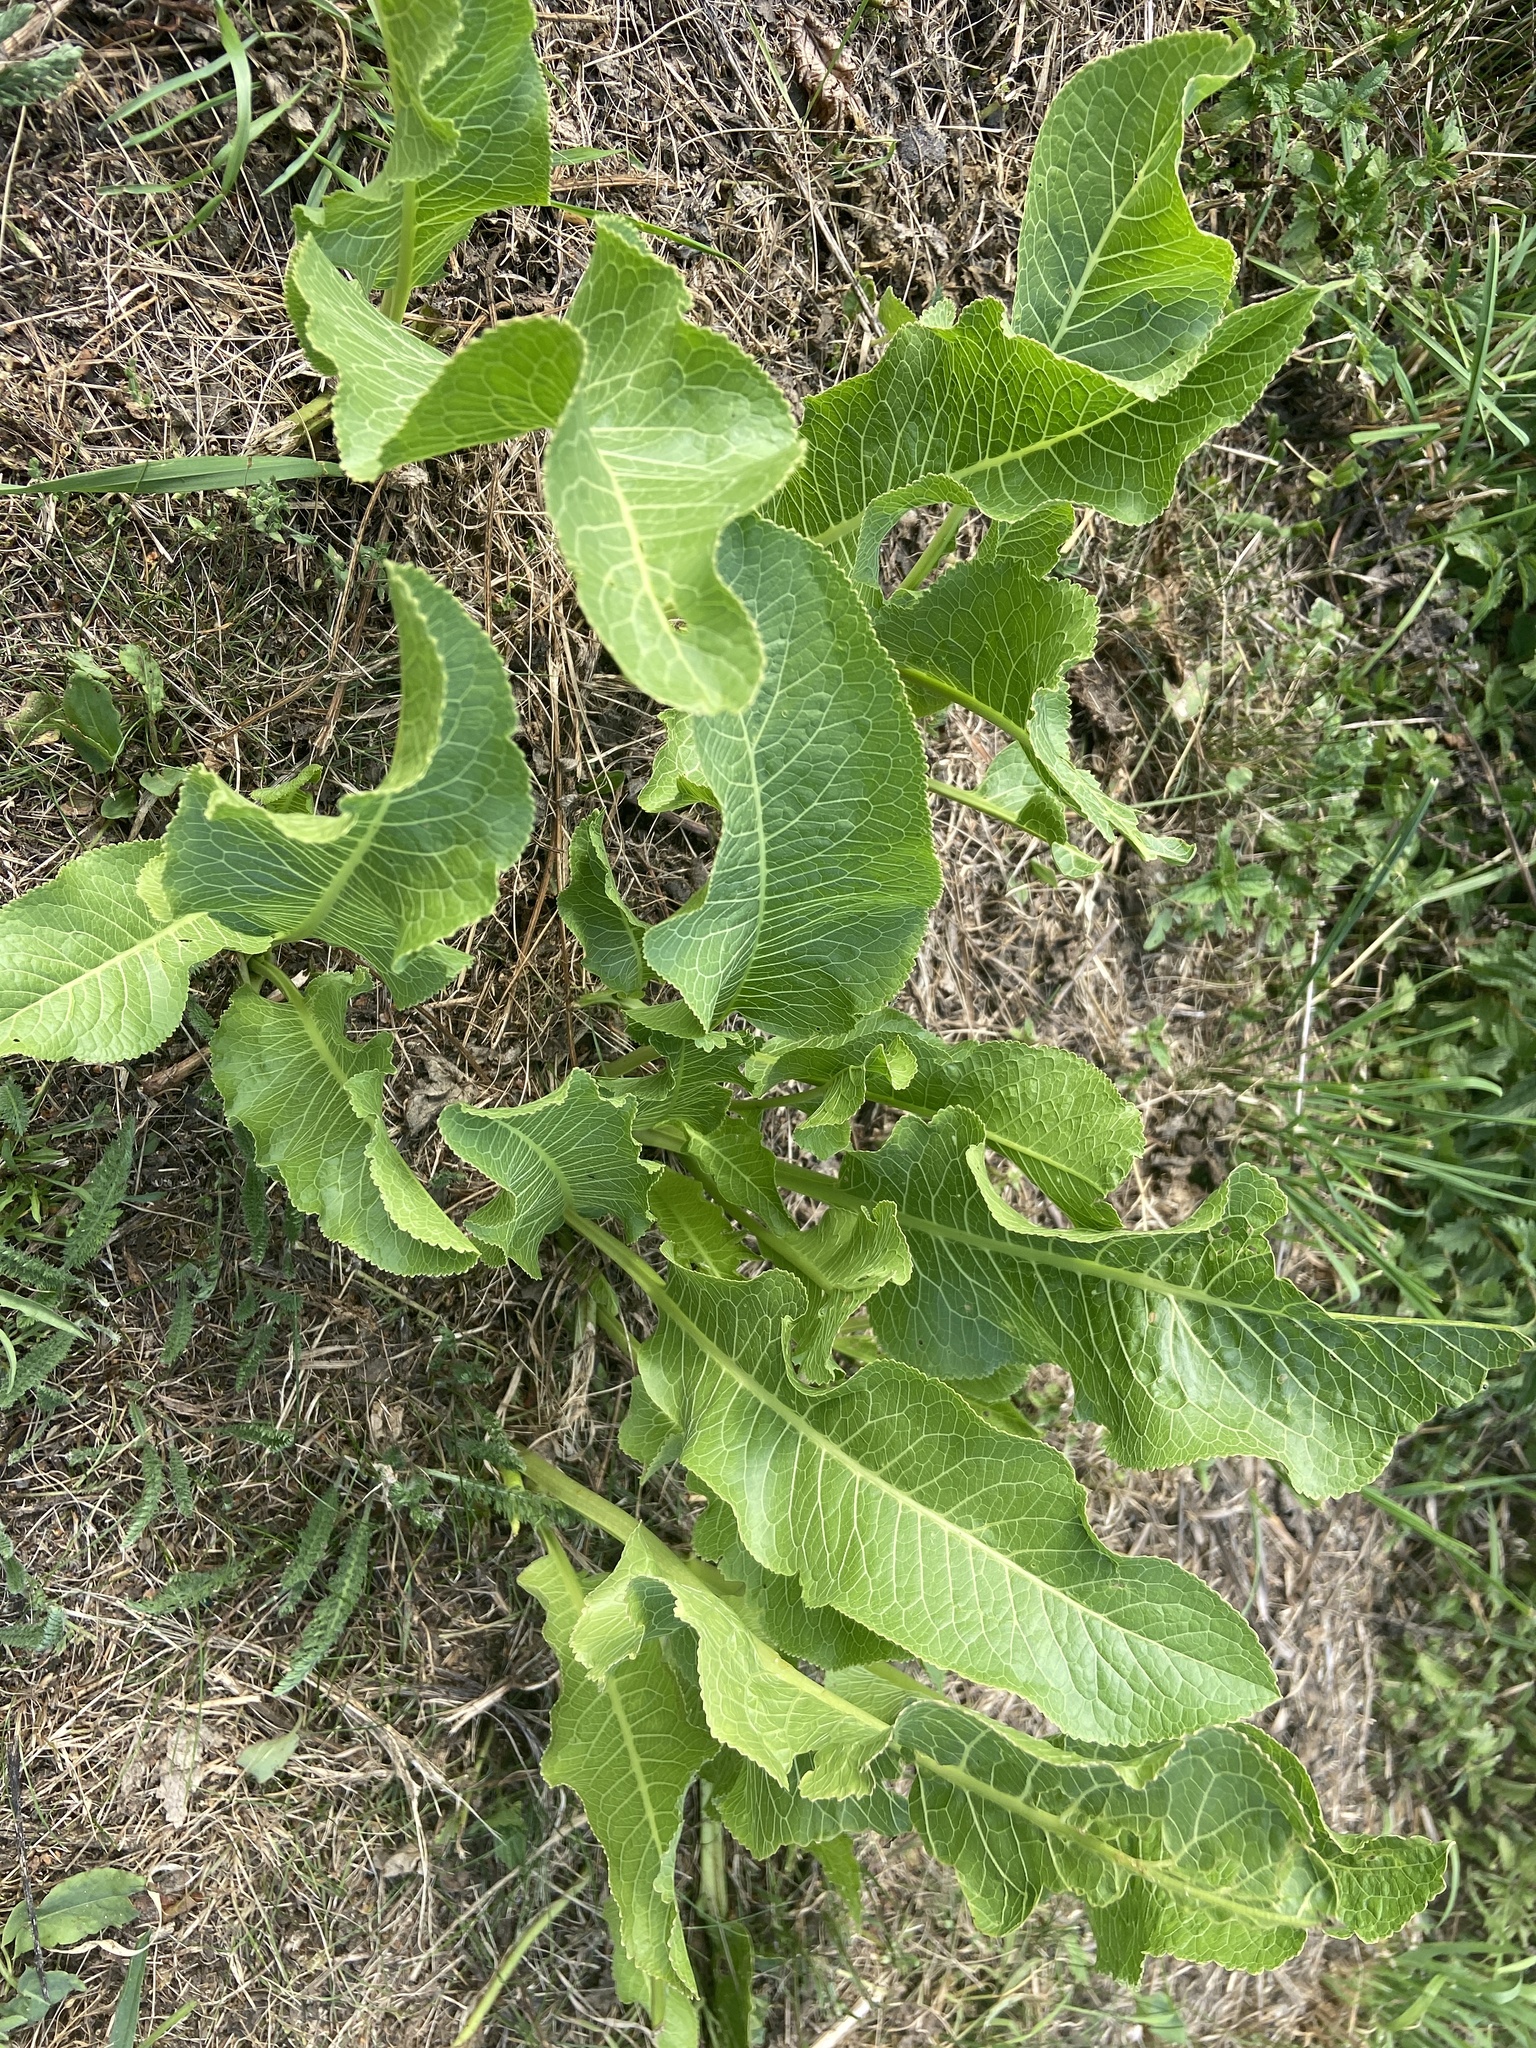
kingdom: Plantae
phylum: Tracheophyta
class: Magnoliopsida
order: Brassicales
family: Brassicaceae
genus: Armoracia
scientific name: Armoracia rusticana
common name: Horseradish
